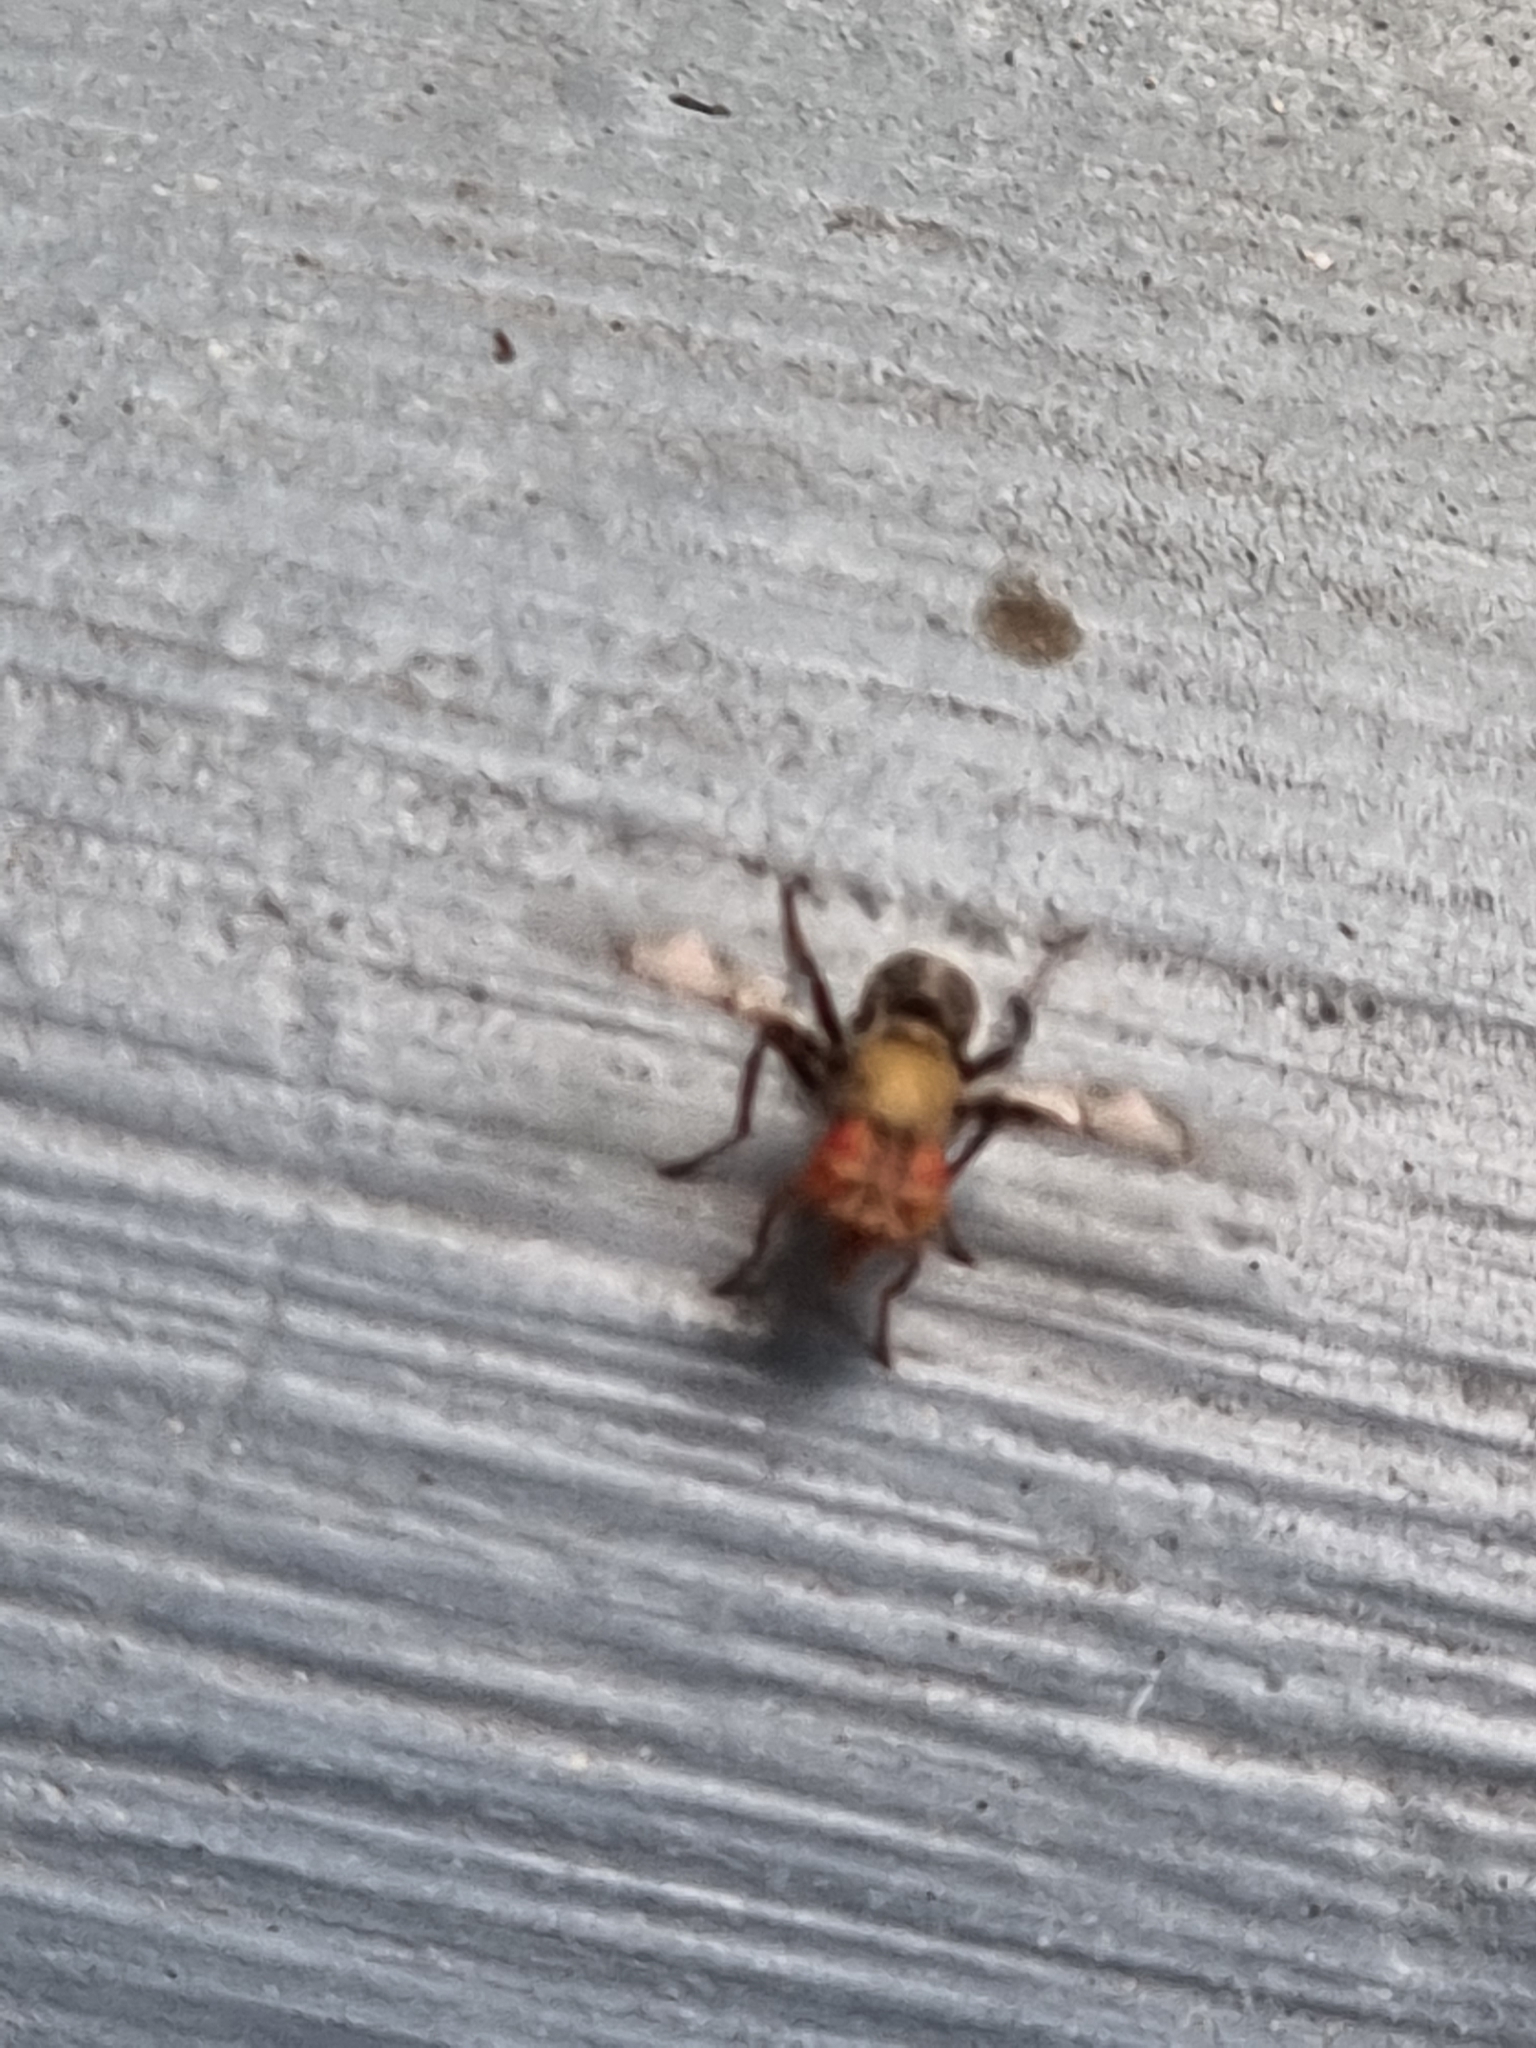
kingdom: Animalia
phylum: Arthropoda
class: Insecta
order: Diptera
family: Platystomatidae
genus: Pogonortalis
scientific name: Pogonortalis doclea
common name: Boatman fly
